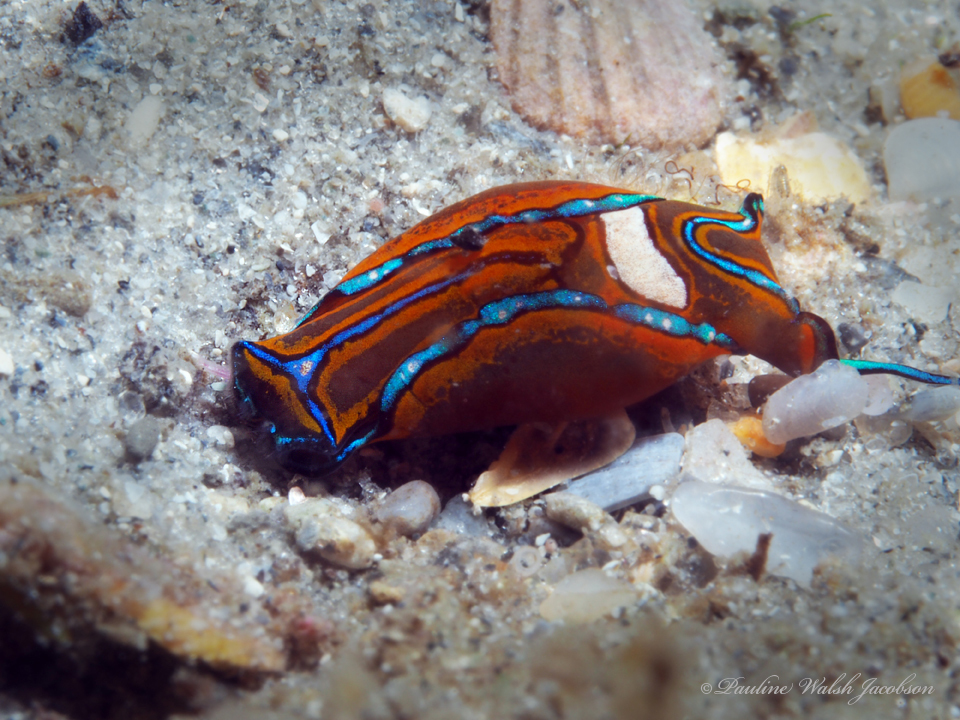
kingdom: Animalia
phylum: Mollusca
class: Gastropoda
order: Cephalaspidea
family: Aglajidae
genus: Chelidonura
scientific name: Chelidonura hirundinina
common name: Leech headshield slug
